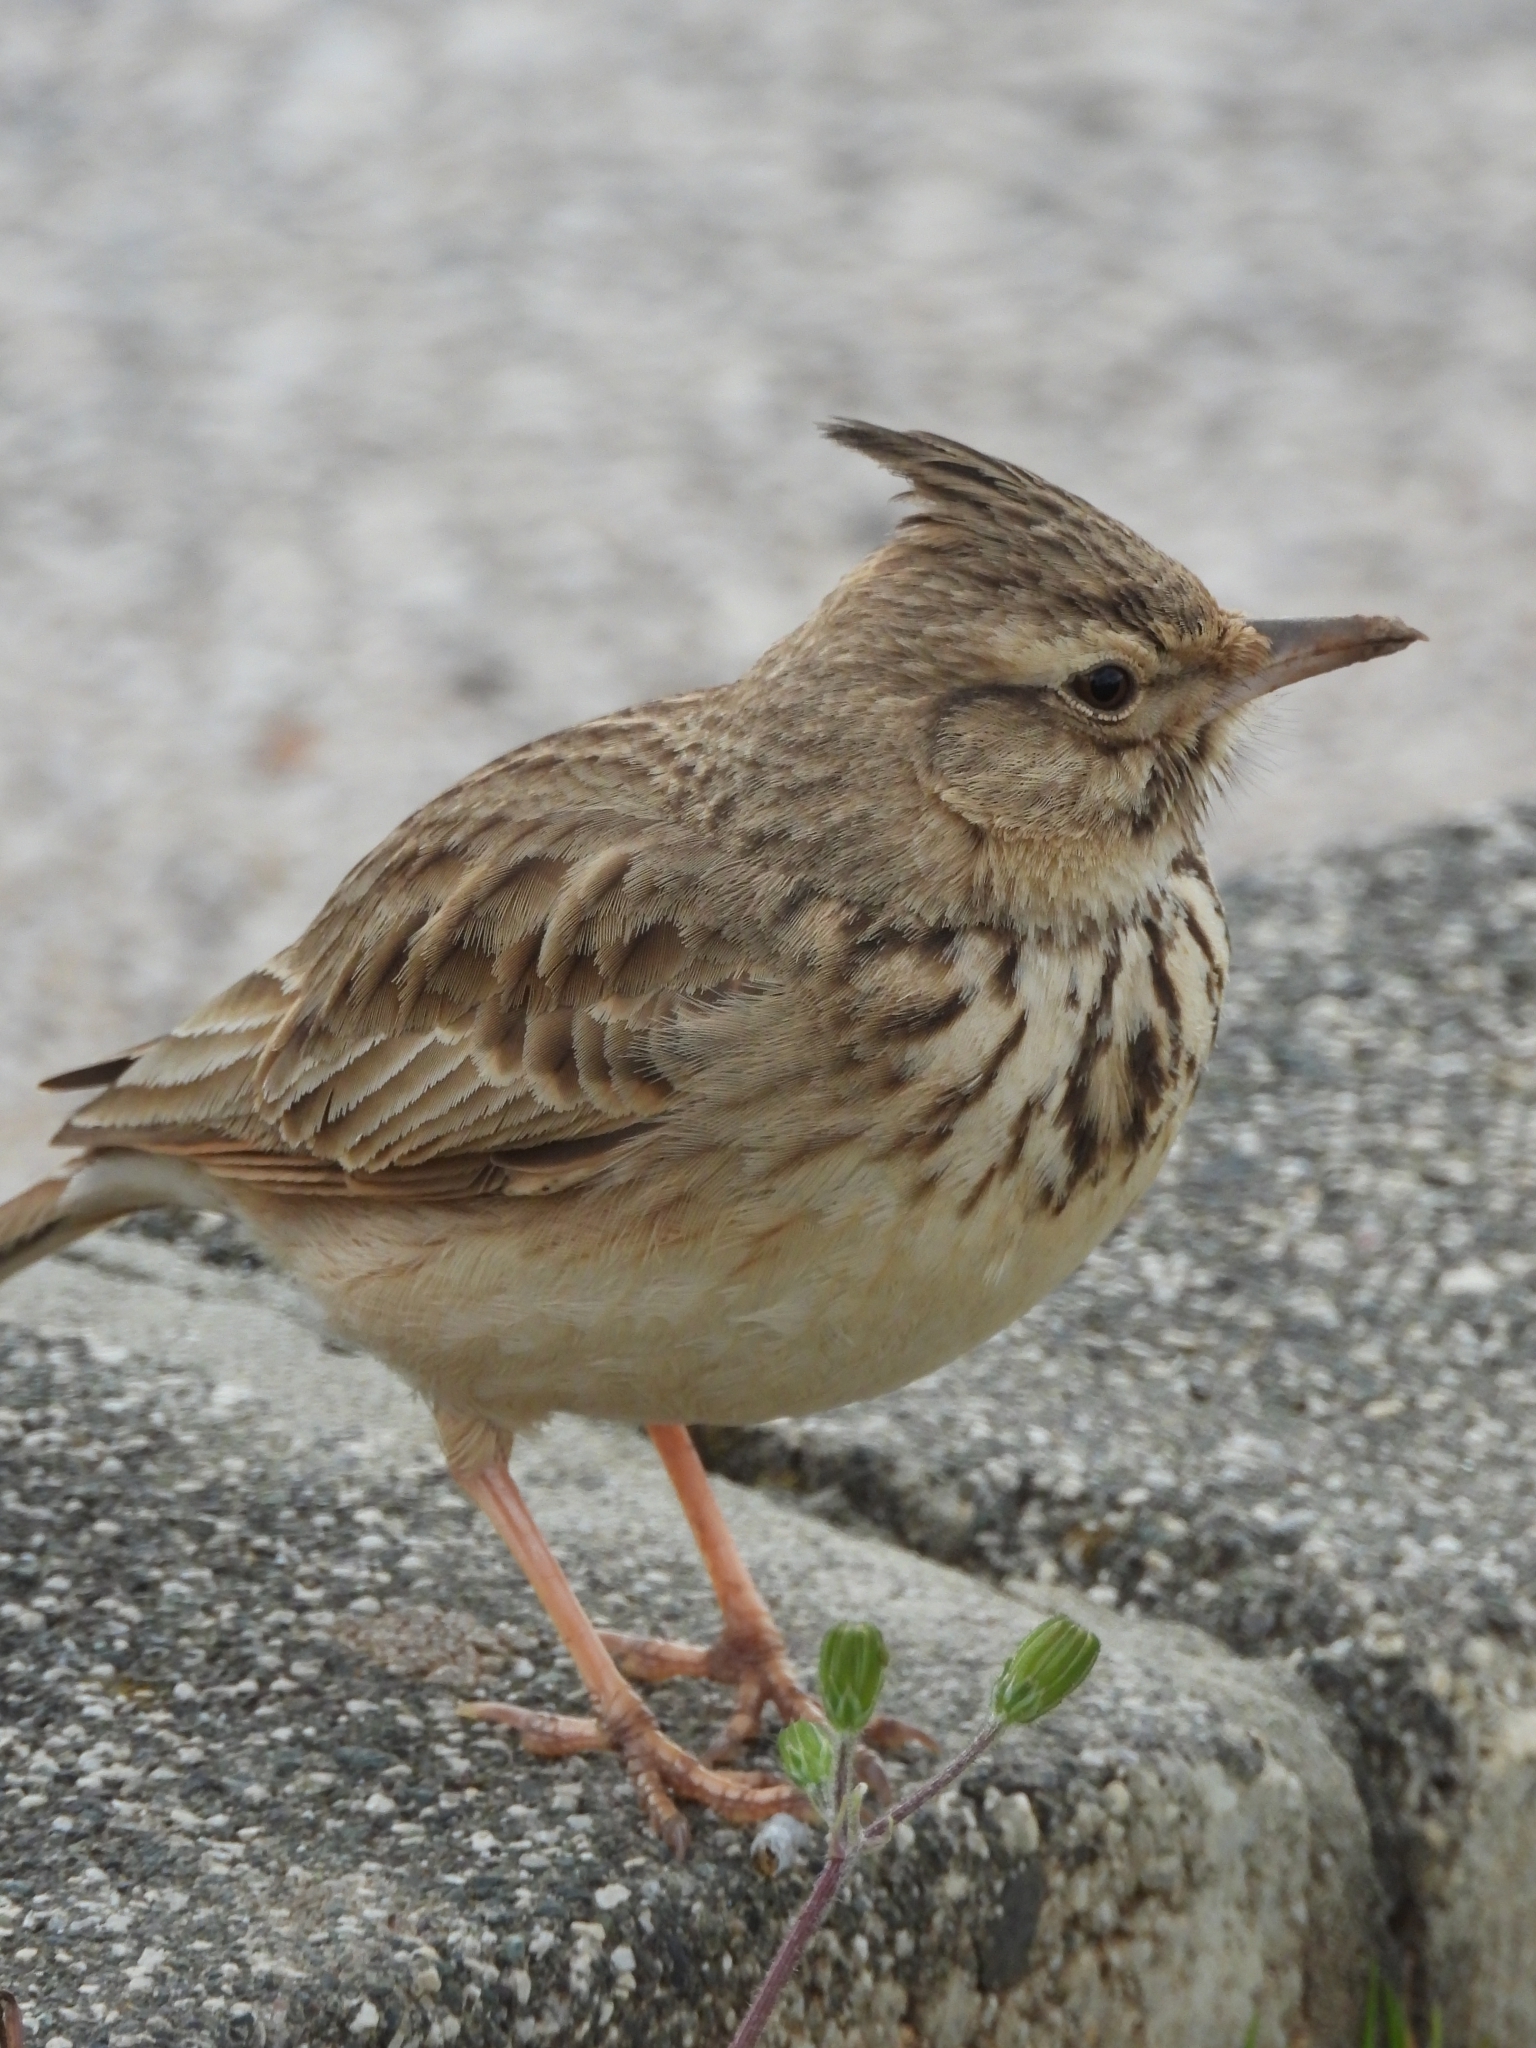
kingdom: Animalia
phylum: Chordata
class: Aves
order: Passeriformes
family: Alaudidae
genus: Galerida
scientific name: Galerida cristata
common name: Crested lark
